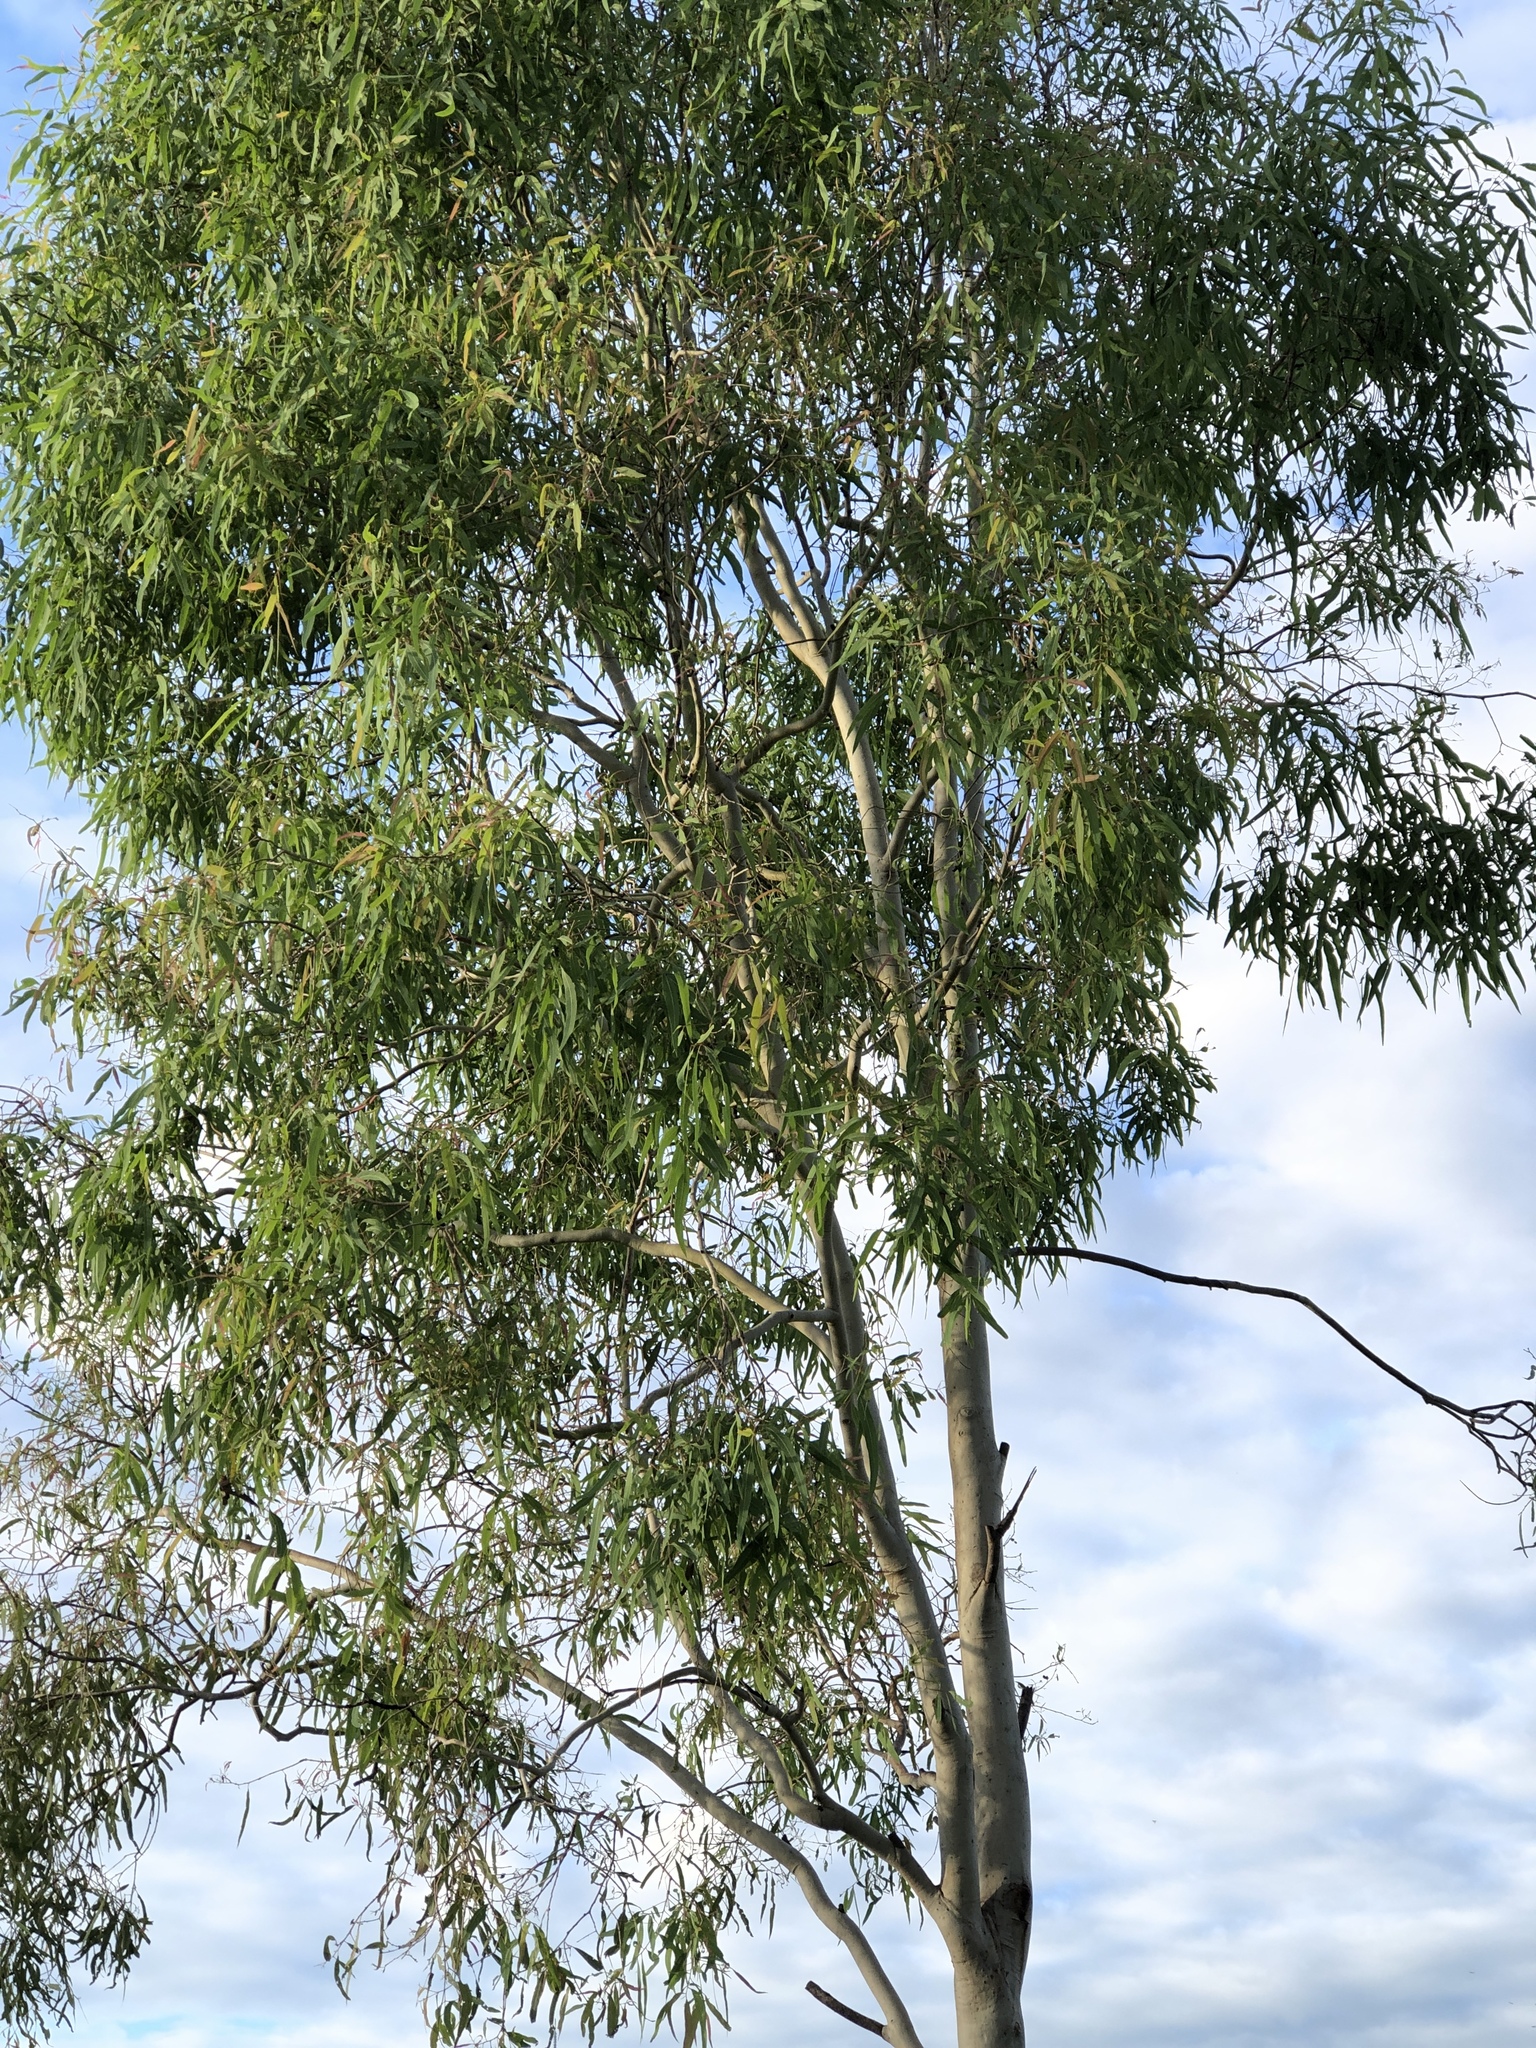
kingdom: Plantae
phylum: Tracheophyta
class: Magnoliopsida
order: Myrtales
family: Myrtaceae
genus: Corymbia
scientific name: Corymbia tessellaris
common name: Carbeen
